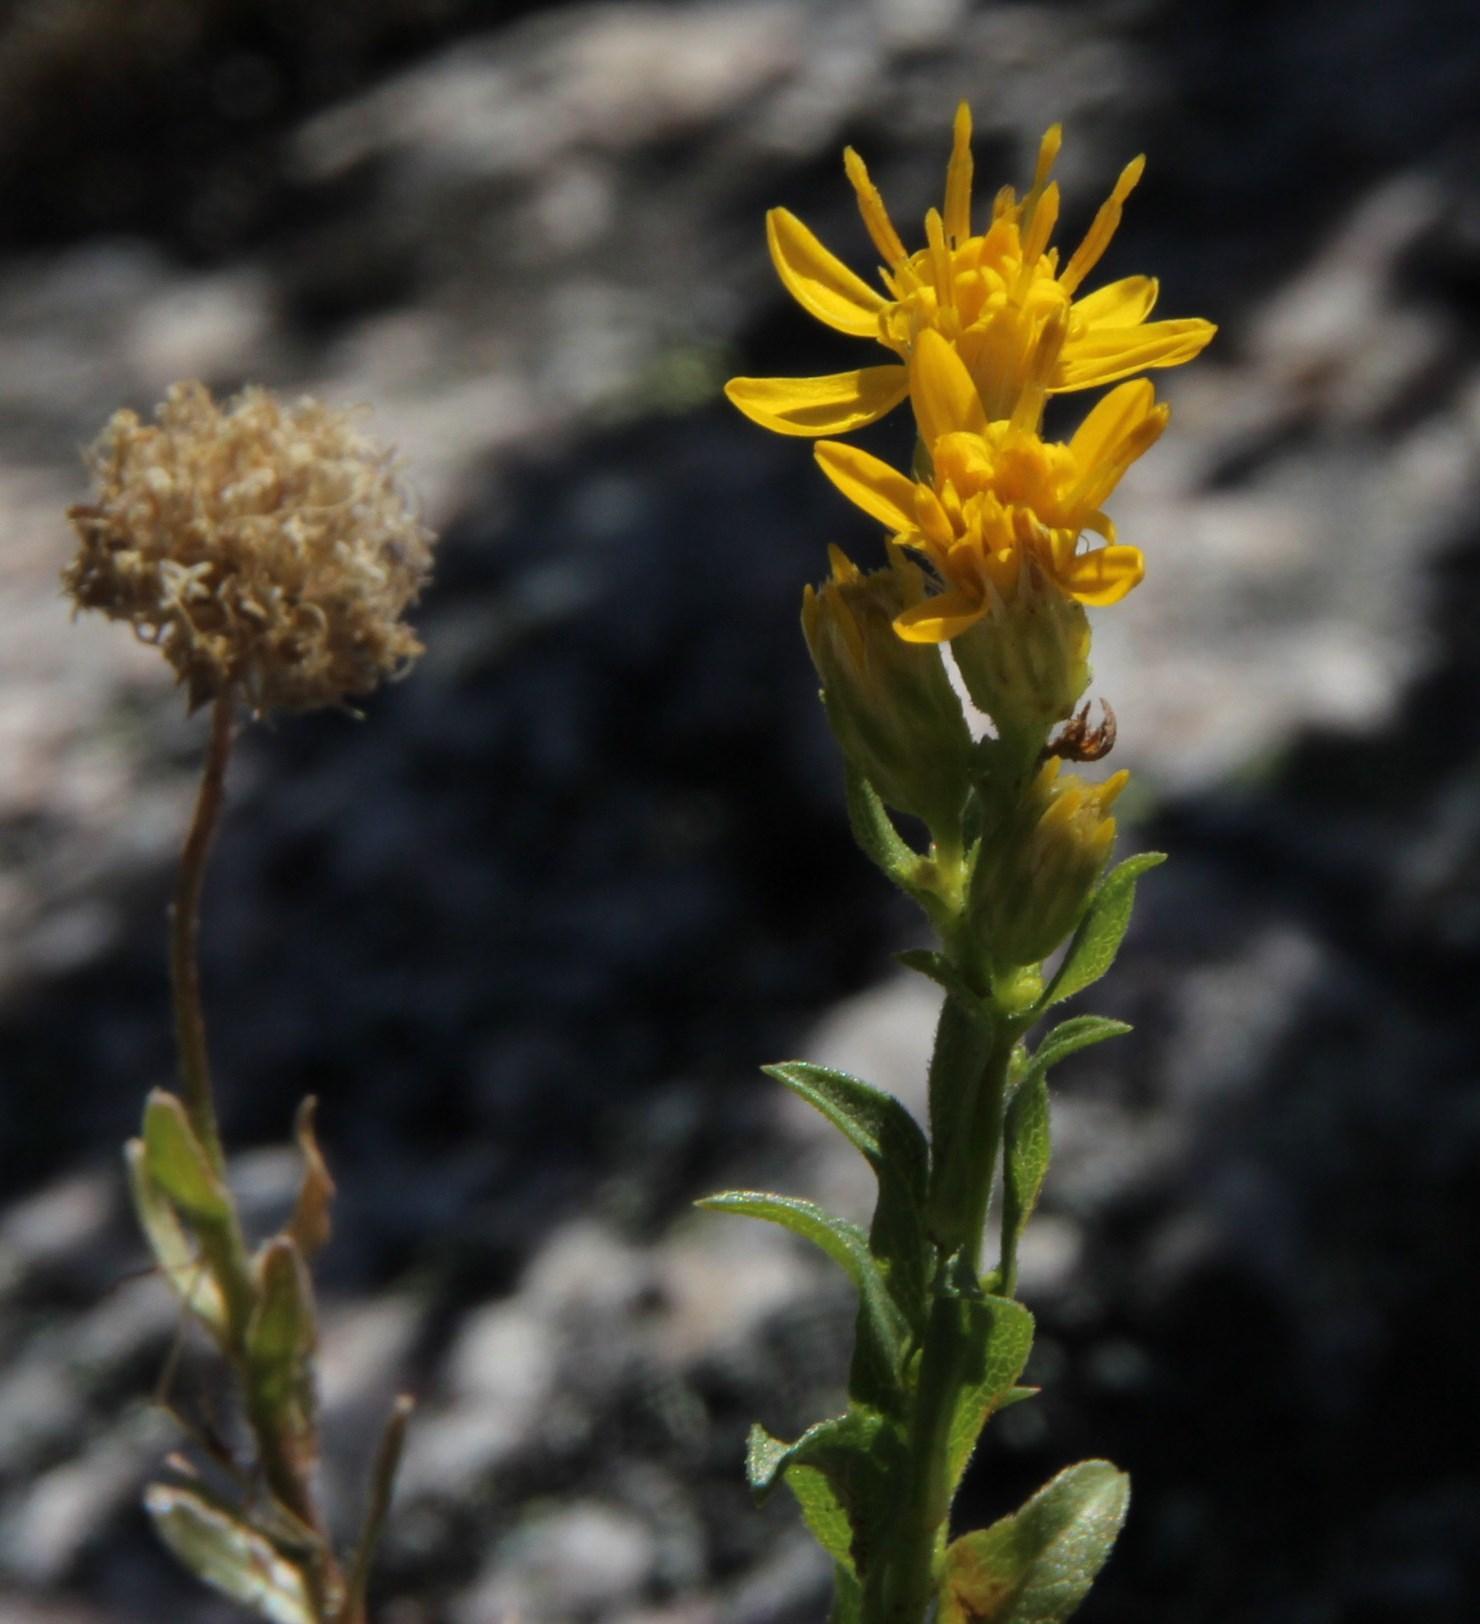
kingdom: Plantae
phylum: Tracheophyta
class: Magnoliopsida
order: Asterales
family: Asteraceae
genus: Solidago
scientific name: Solidago virgaurea
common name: Goldenrod
